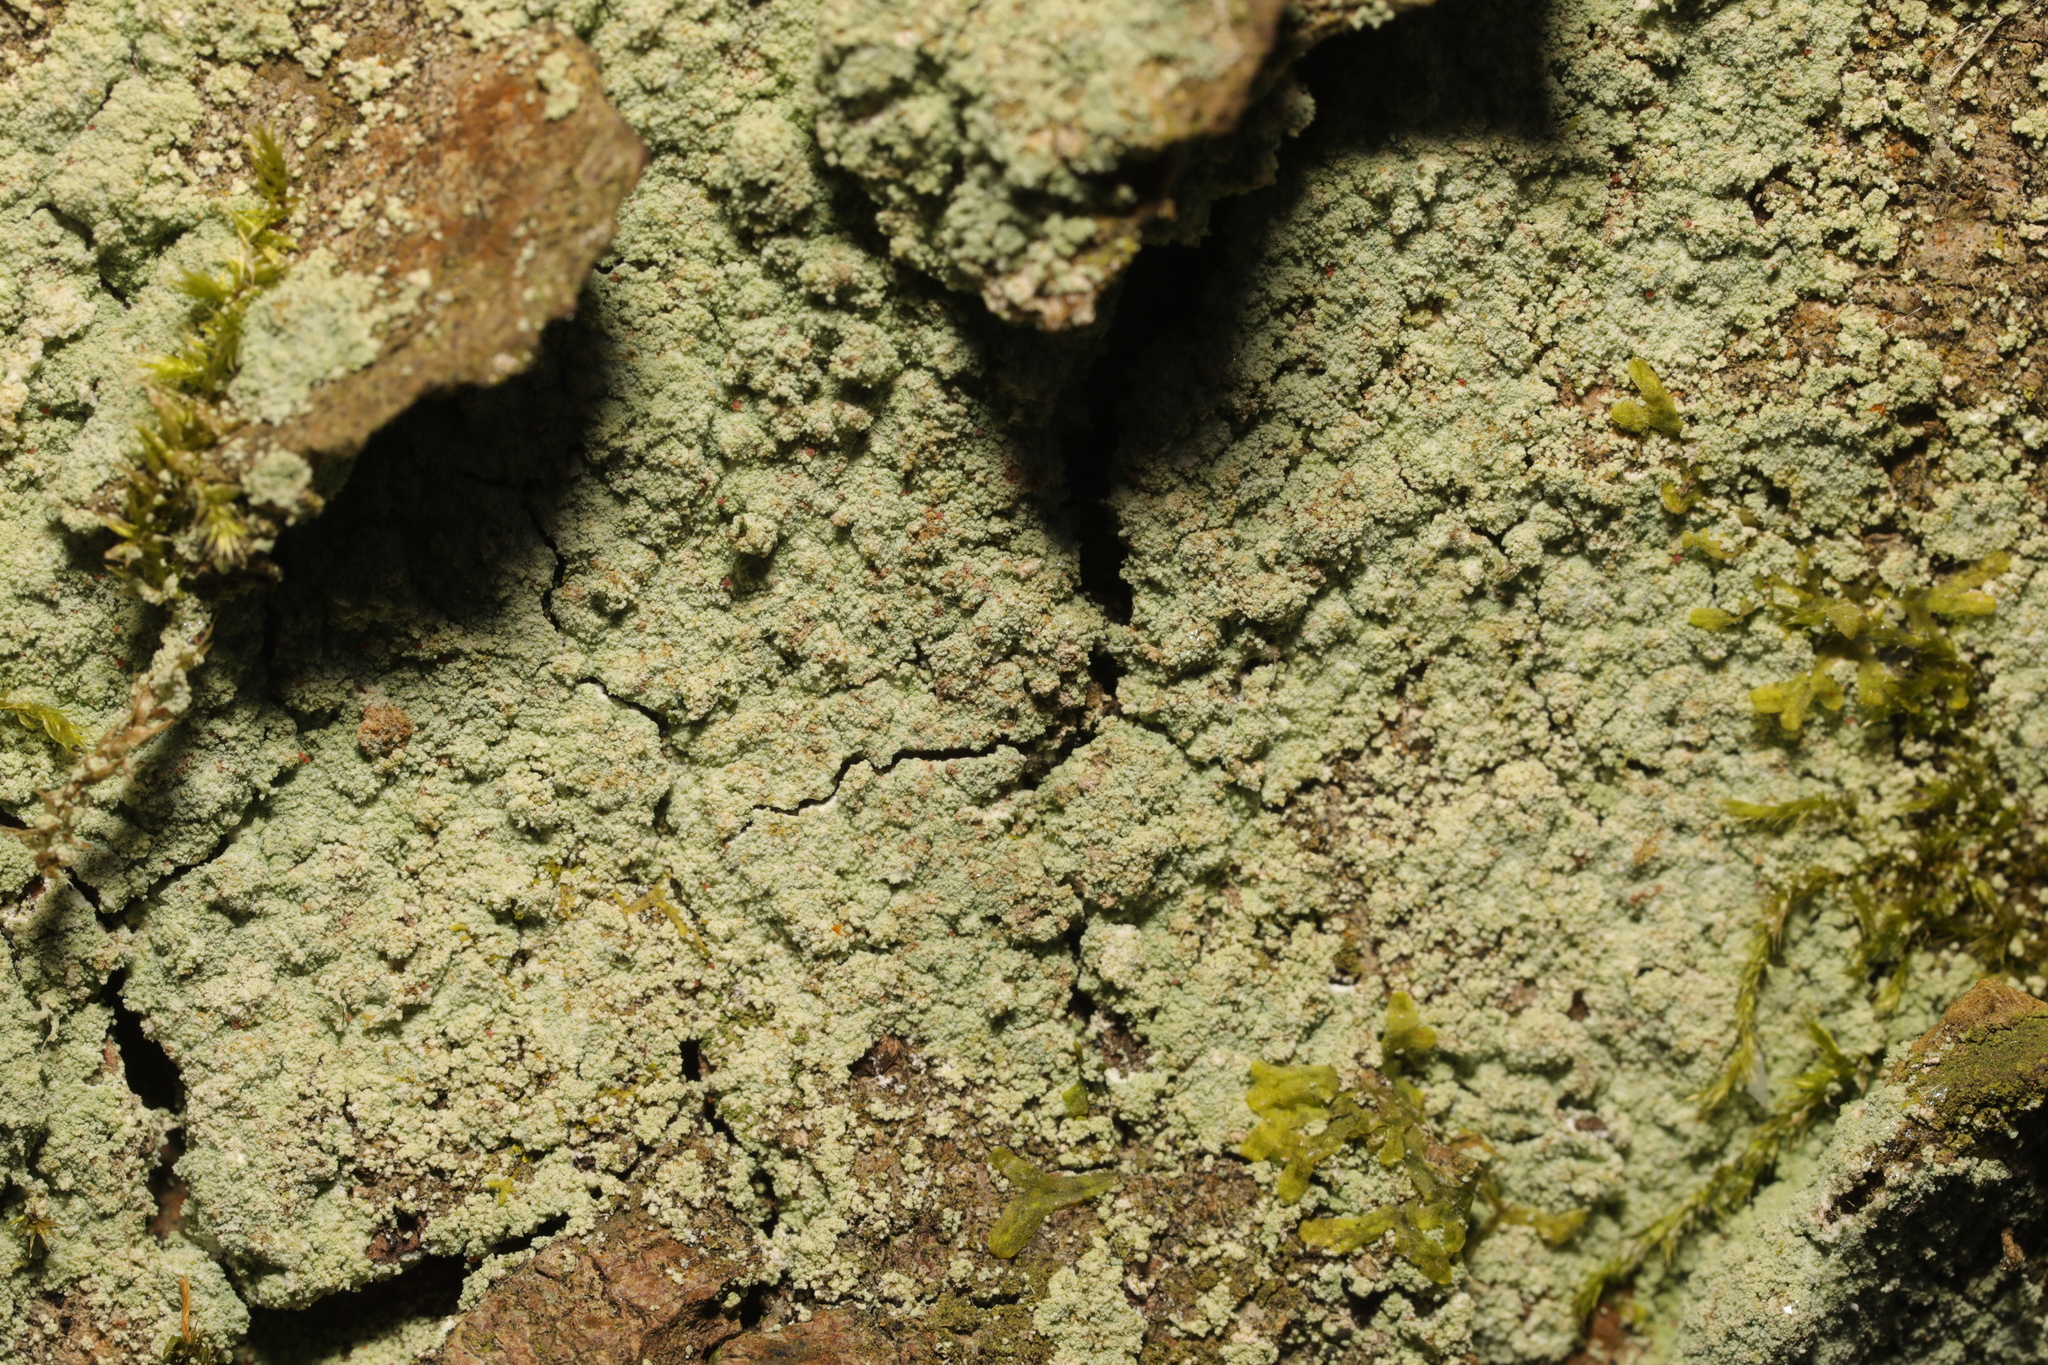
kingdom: Fungi
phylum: Ascomycota
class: Lecanoromycetes
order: Lecanorales
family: Stereocaulaceae
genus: Lepraria
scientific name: Lepraria
